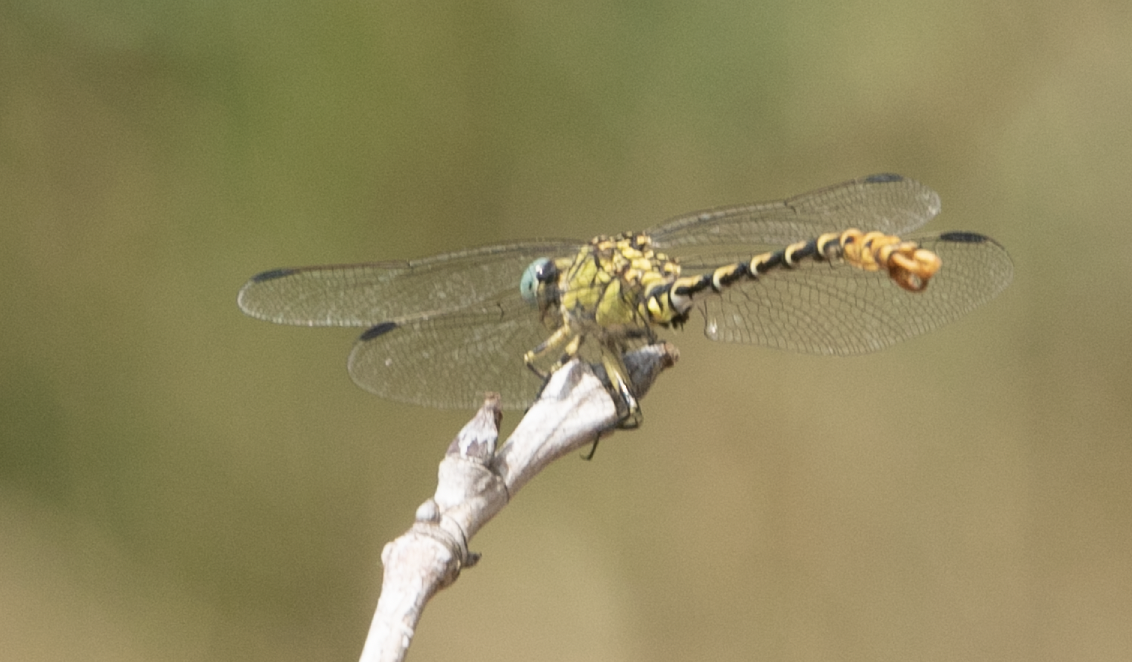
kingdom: Animalia
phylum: Arthropoda
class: Insecta
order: Odonata
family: Gomphidae
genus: Onychogomphus
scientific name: Onychogomphus forcipatus
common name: Small pincertail
